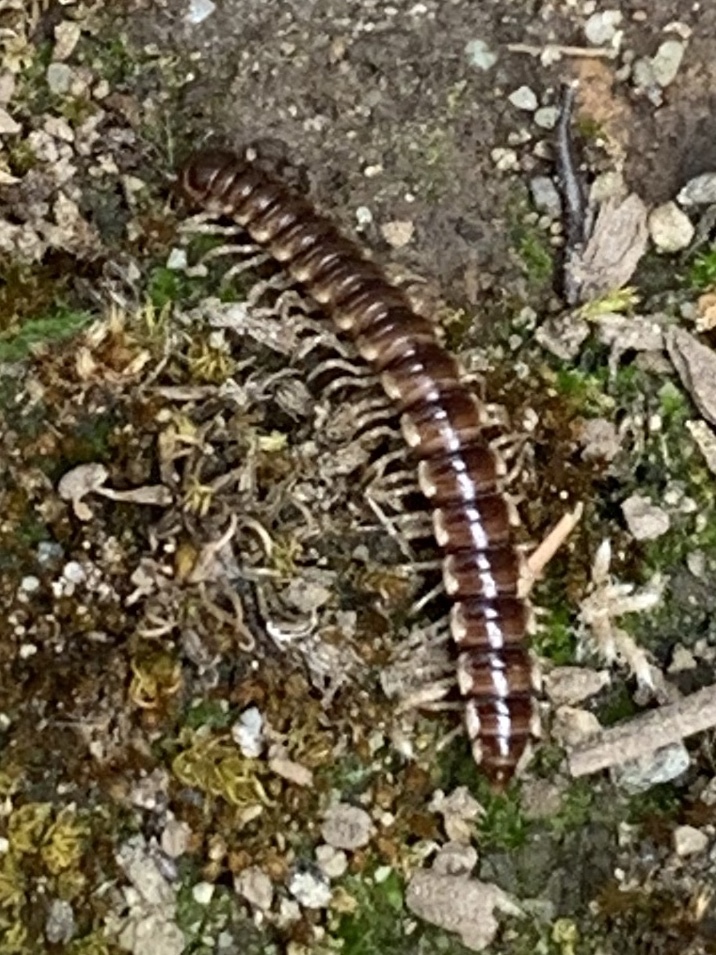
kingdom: Animalia
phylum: Arthropoda
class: Diplopoda
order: Polydesmida
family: Paradoxosomatidae
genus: Oxidus
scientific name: Oxidus gracilis
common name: Greenhouse millipede
